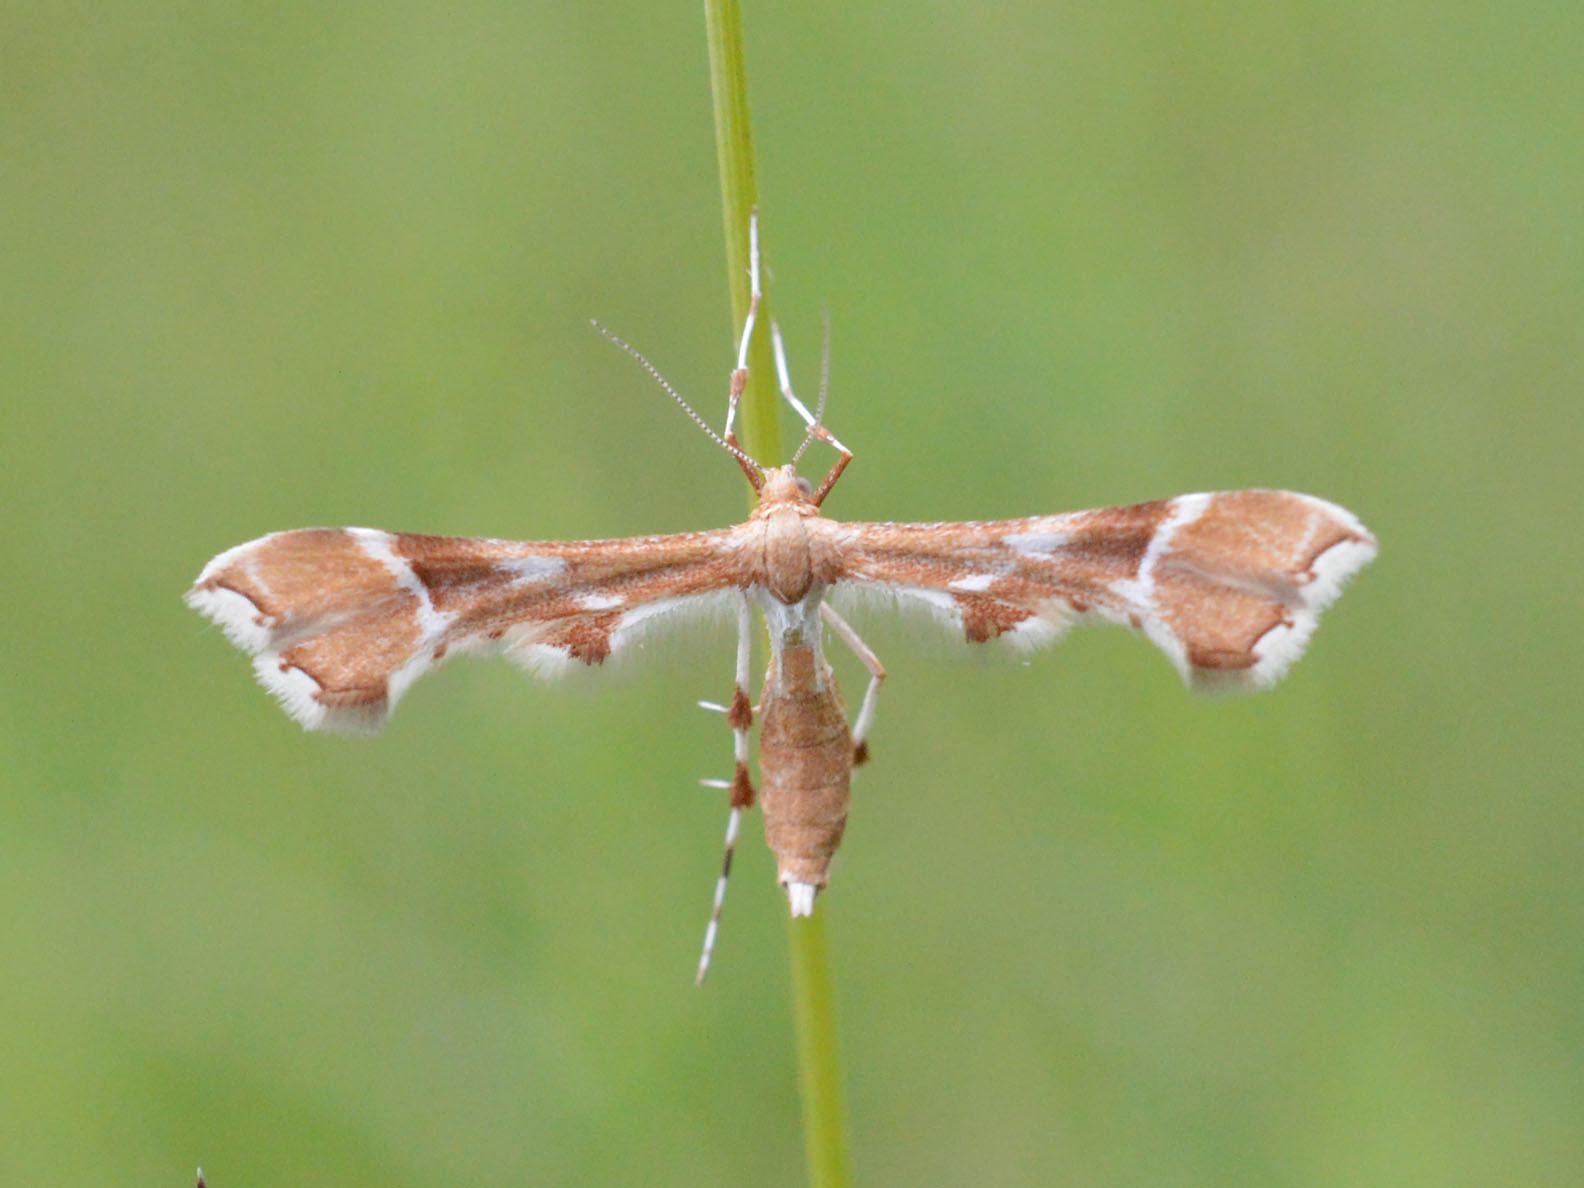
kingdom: Animalia
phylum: Arthropoda
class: Insecta
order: Lepidoptera
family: Pterophoridae
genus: Cnaemidophorus
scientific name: Cnaemidophorus rhododactyla
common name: Rose plume
